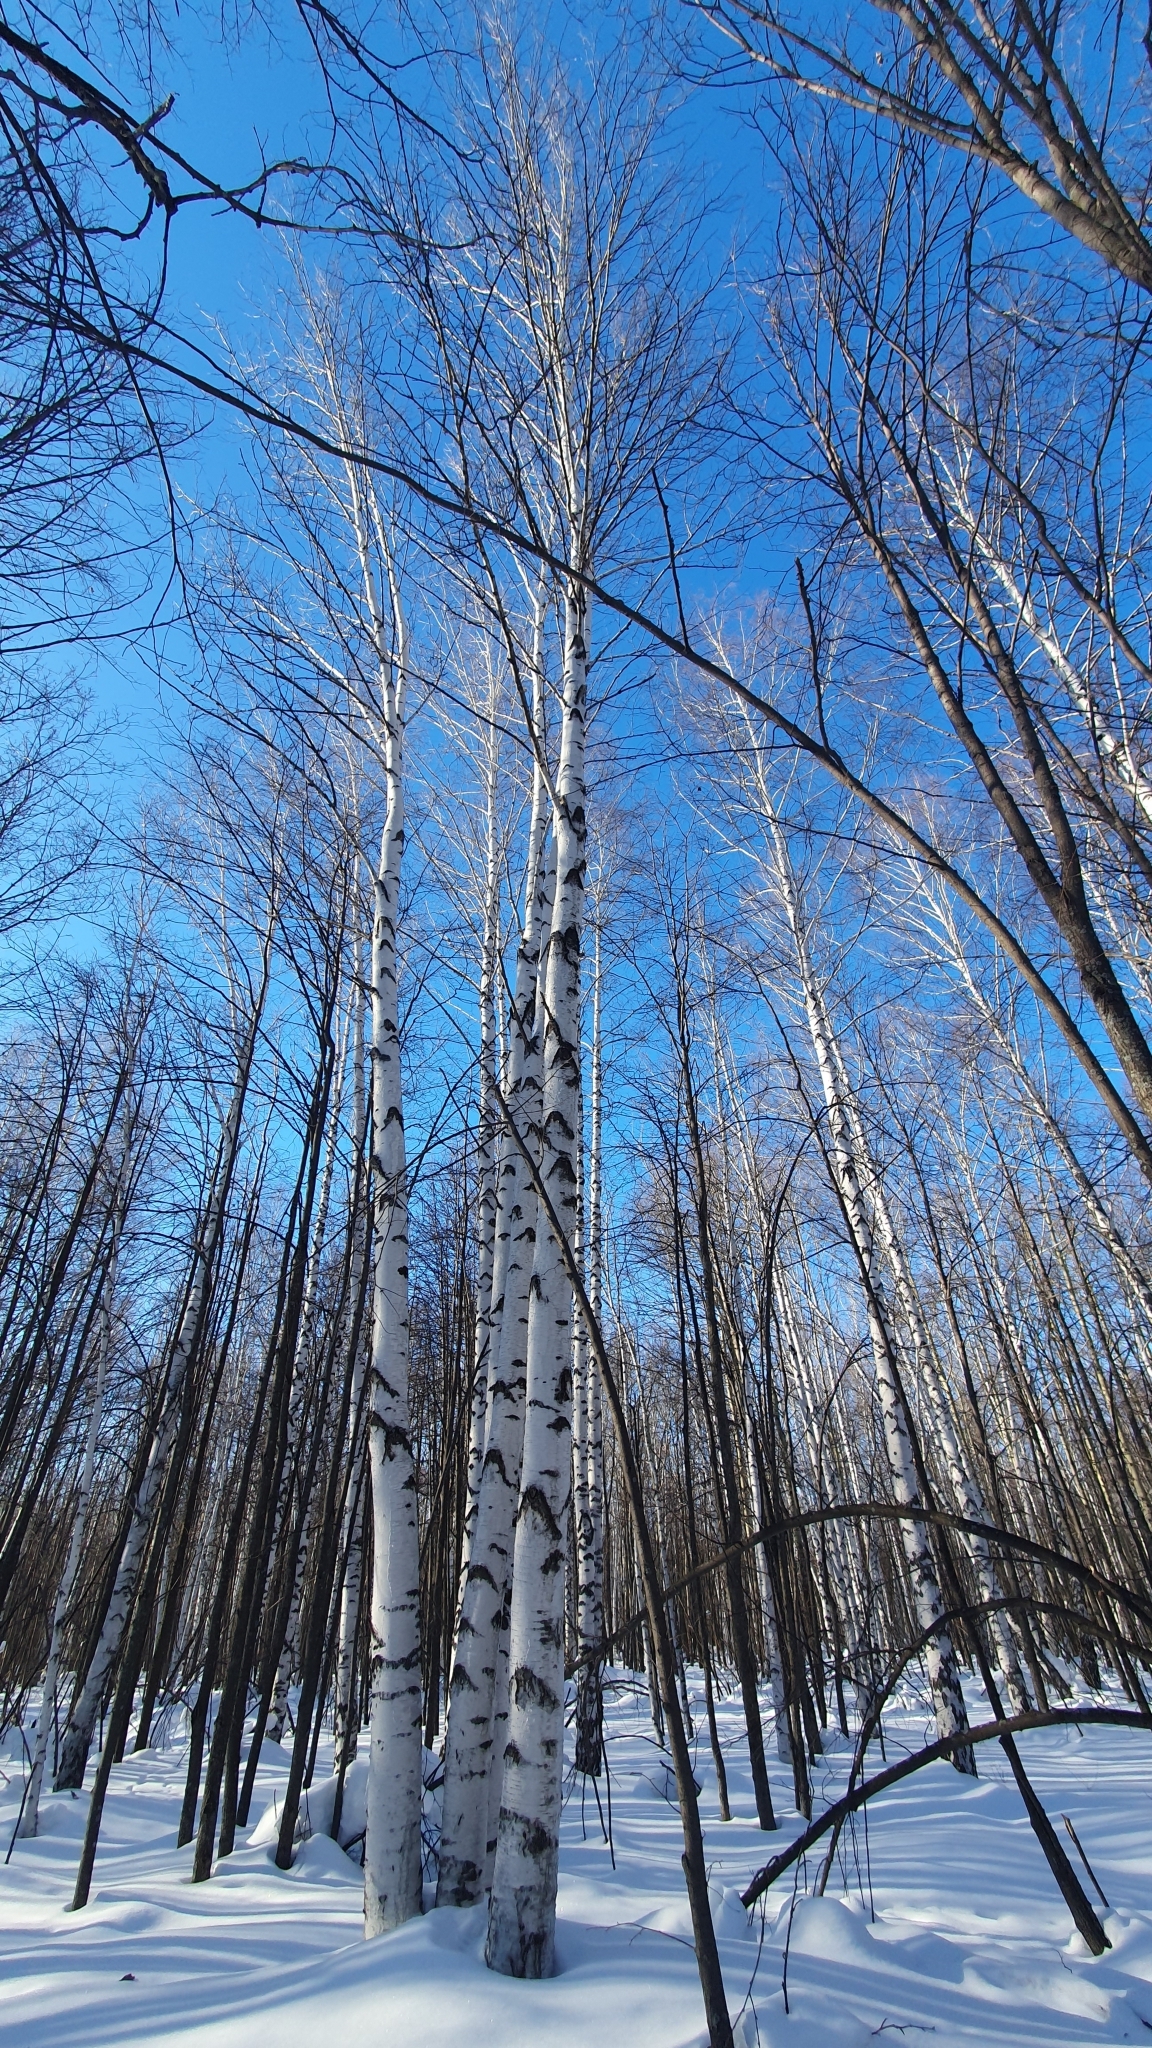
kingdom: Plantae
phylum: Tracheophyta
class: Magnoliopsida
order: Fagales
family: Betulaceae
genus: Betula
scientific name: Betula pendula
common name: Silver birch
